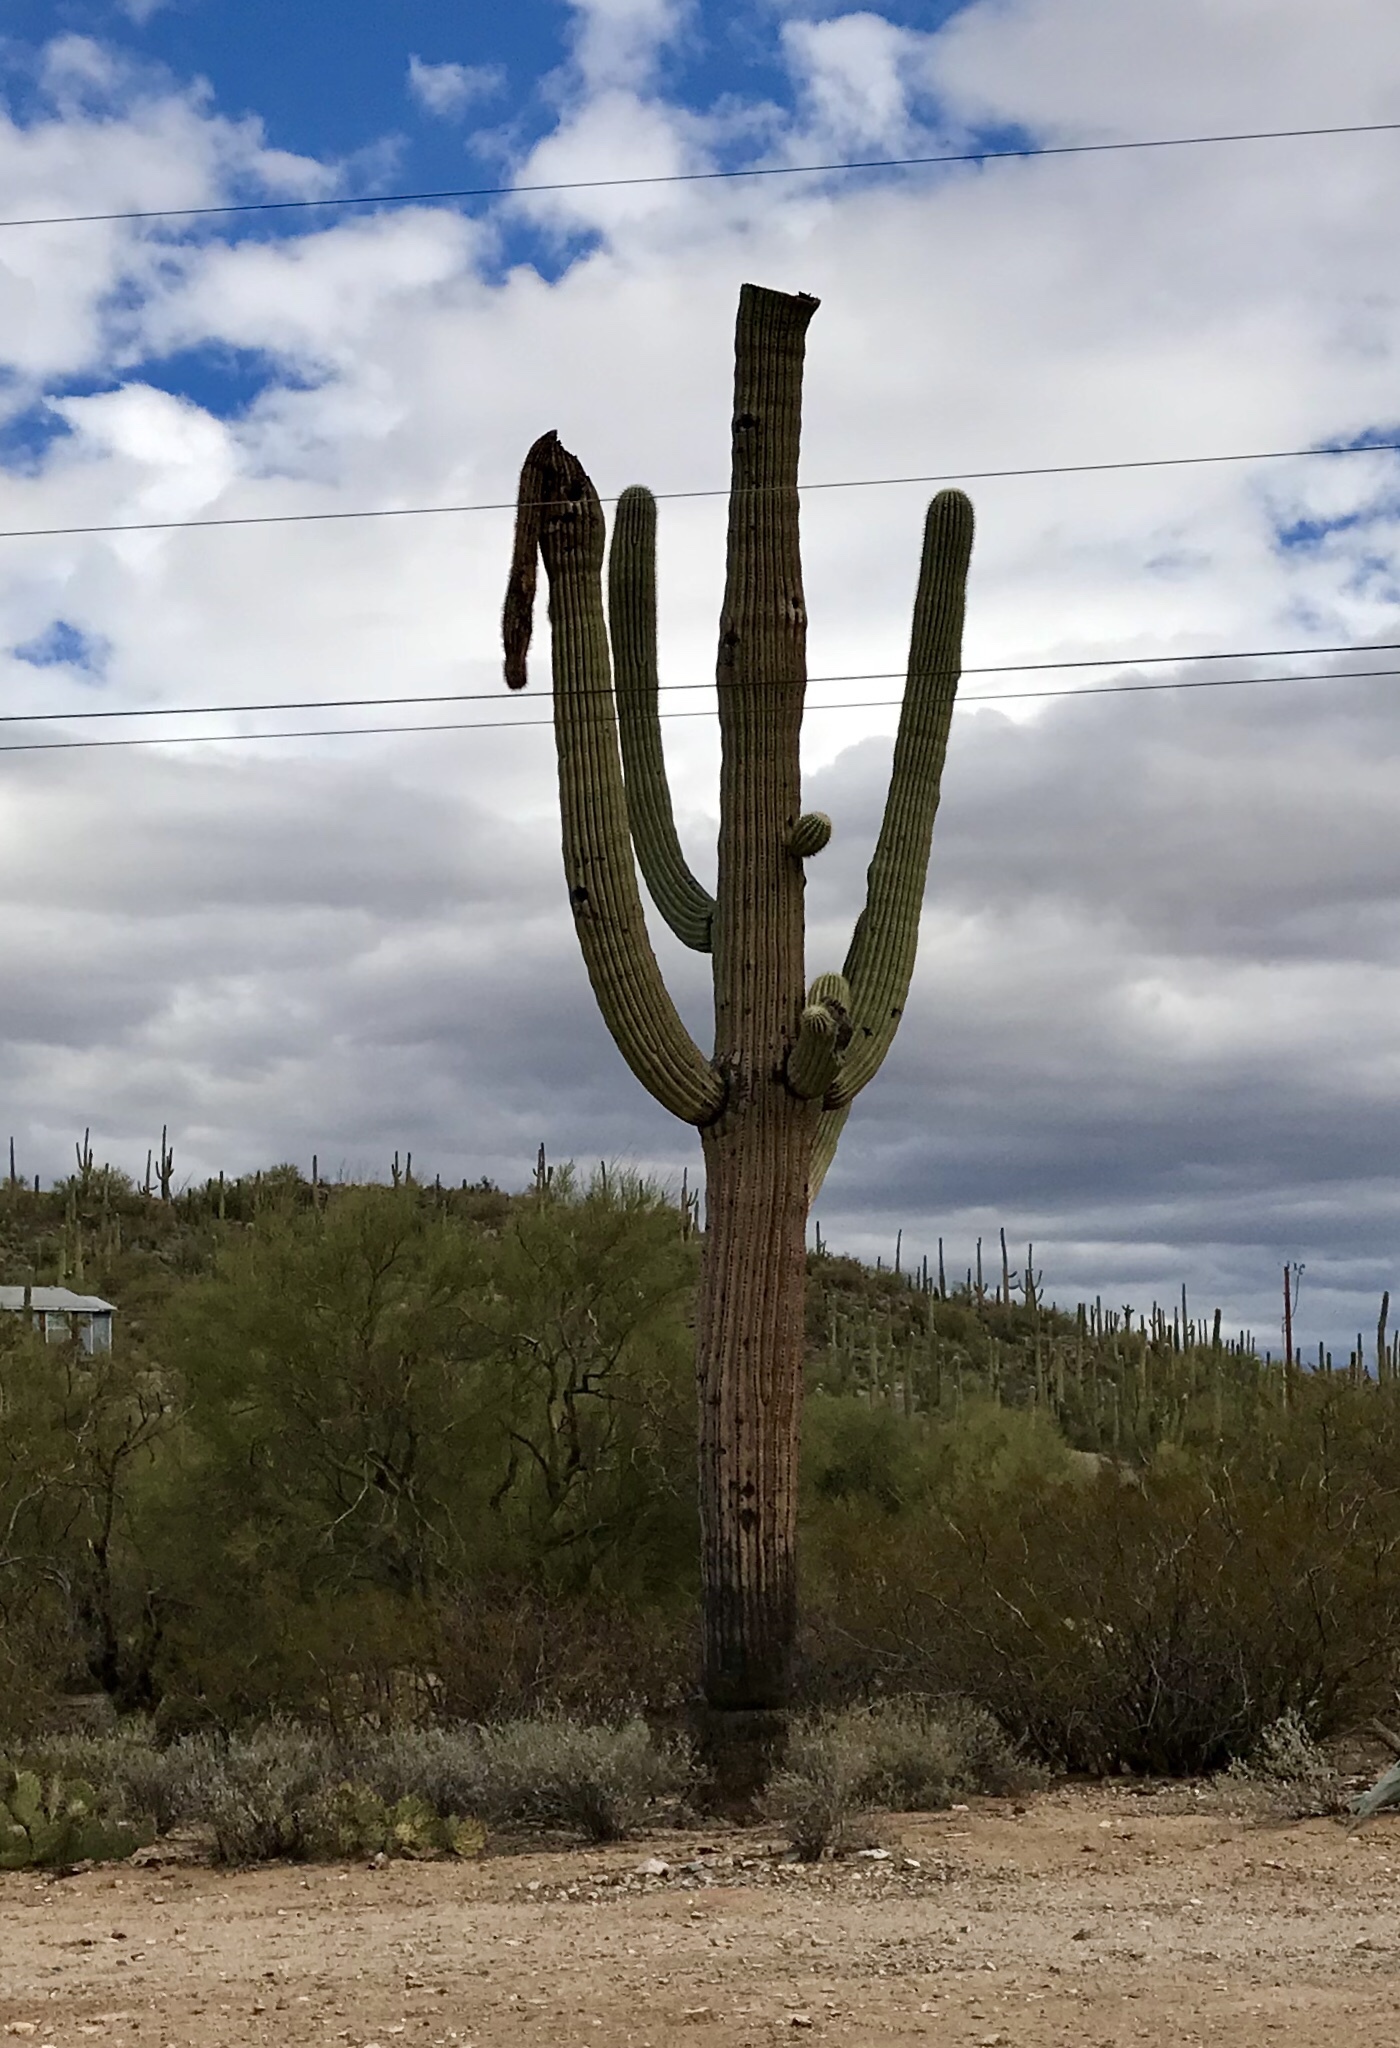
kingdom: Plantae
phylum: Tracheophyta
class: Magnoliopsida
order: Caryophyllales
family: Cactaceae
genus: Carnegiea
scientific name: Carnegiea gigantea
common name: Saguaro
